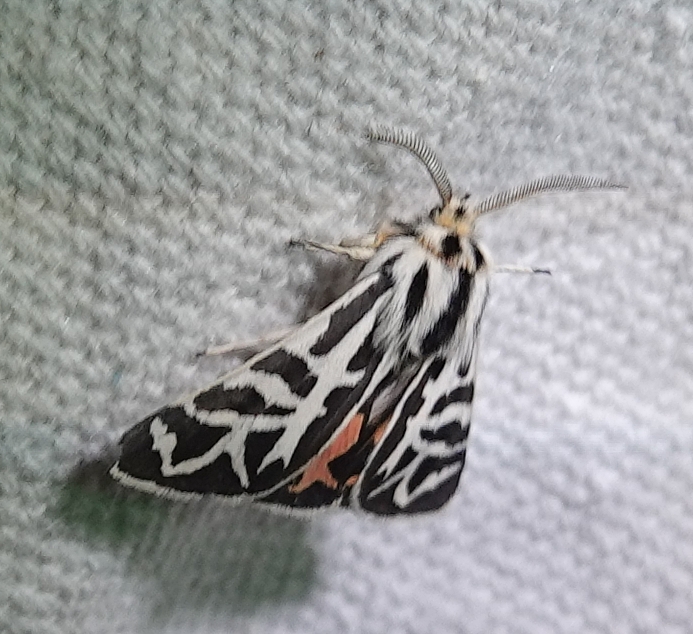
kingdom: Animalia
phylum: Arthropoda
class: Insecta
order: Lepidoptera
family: Erebidae
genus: Apantesis
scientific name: Apantesis
